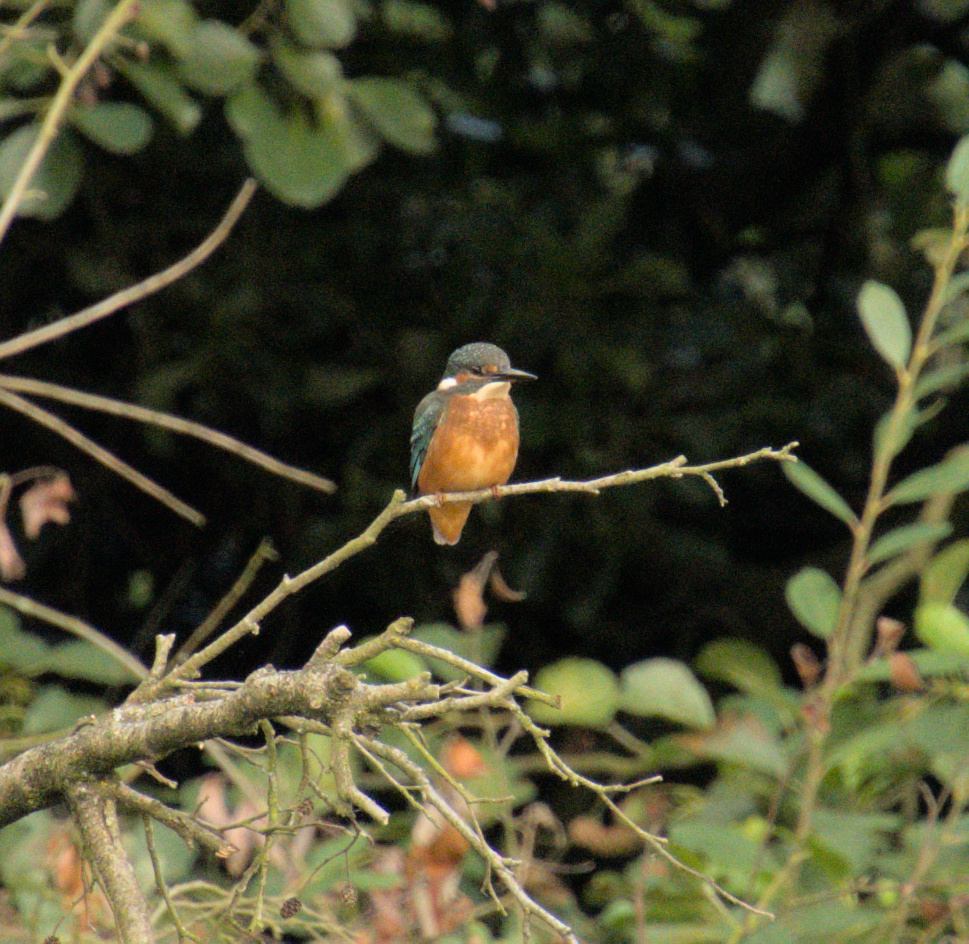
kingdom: Animalia
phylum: Chordata
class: Aves
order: Coraciiformes
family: Alcedinidae
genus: Alcedo
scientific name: Alcedo atthis
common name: Common kingfisher
